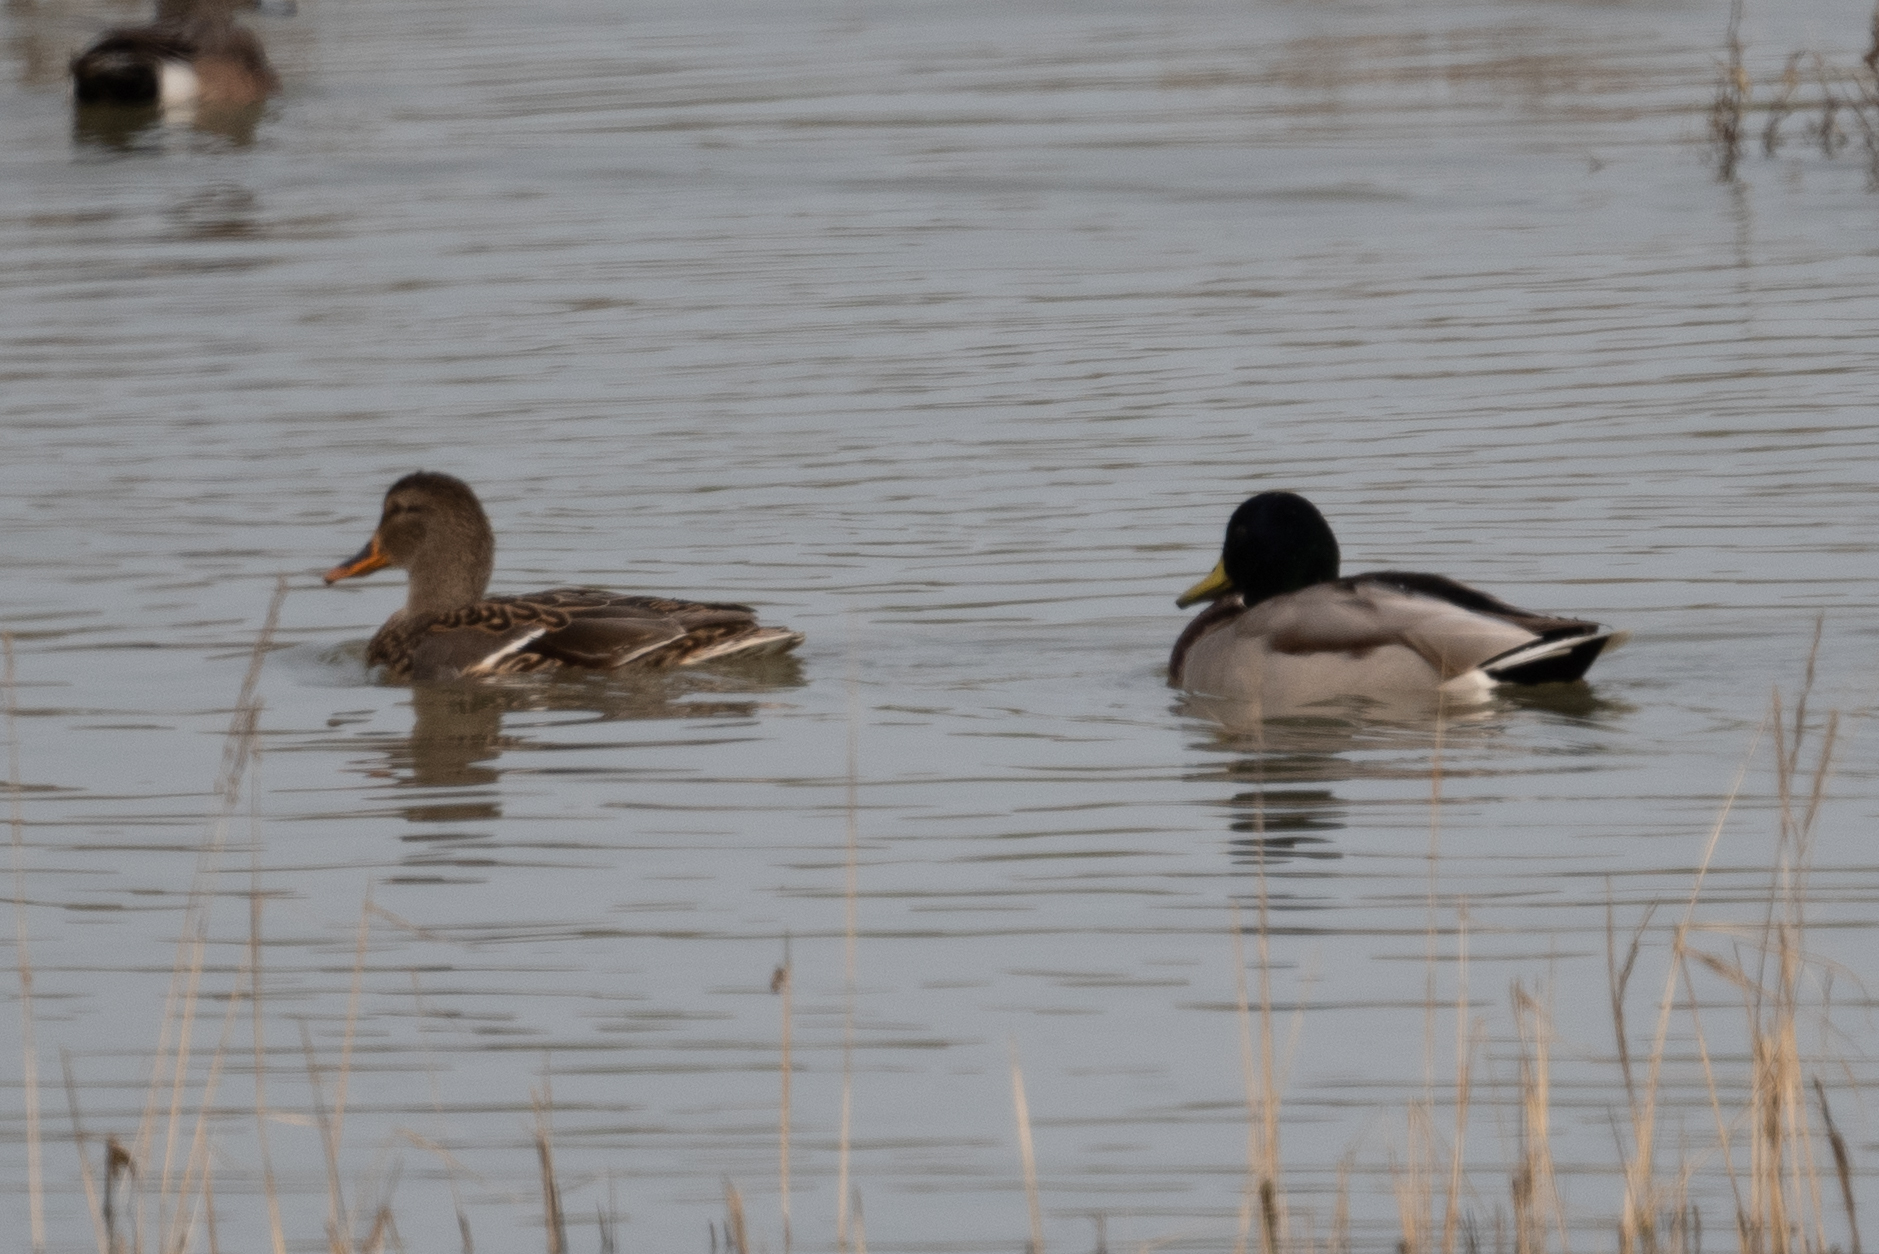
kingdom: Animalia
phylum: Chordata
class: Aves
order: Anseriformes
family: Anatidae
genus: Anas
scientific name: Anas platyrhynchos
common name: Mallard
